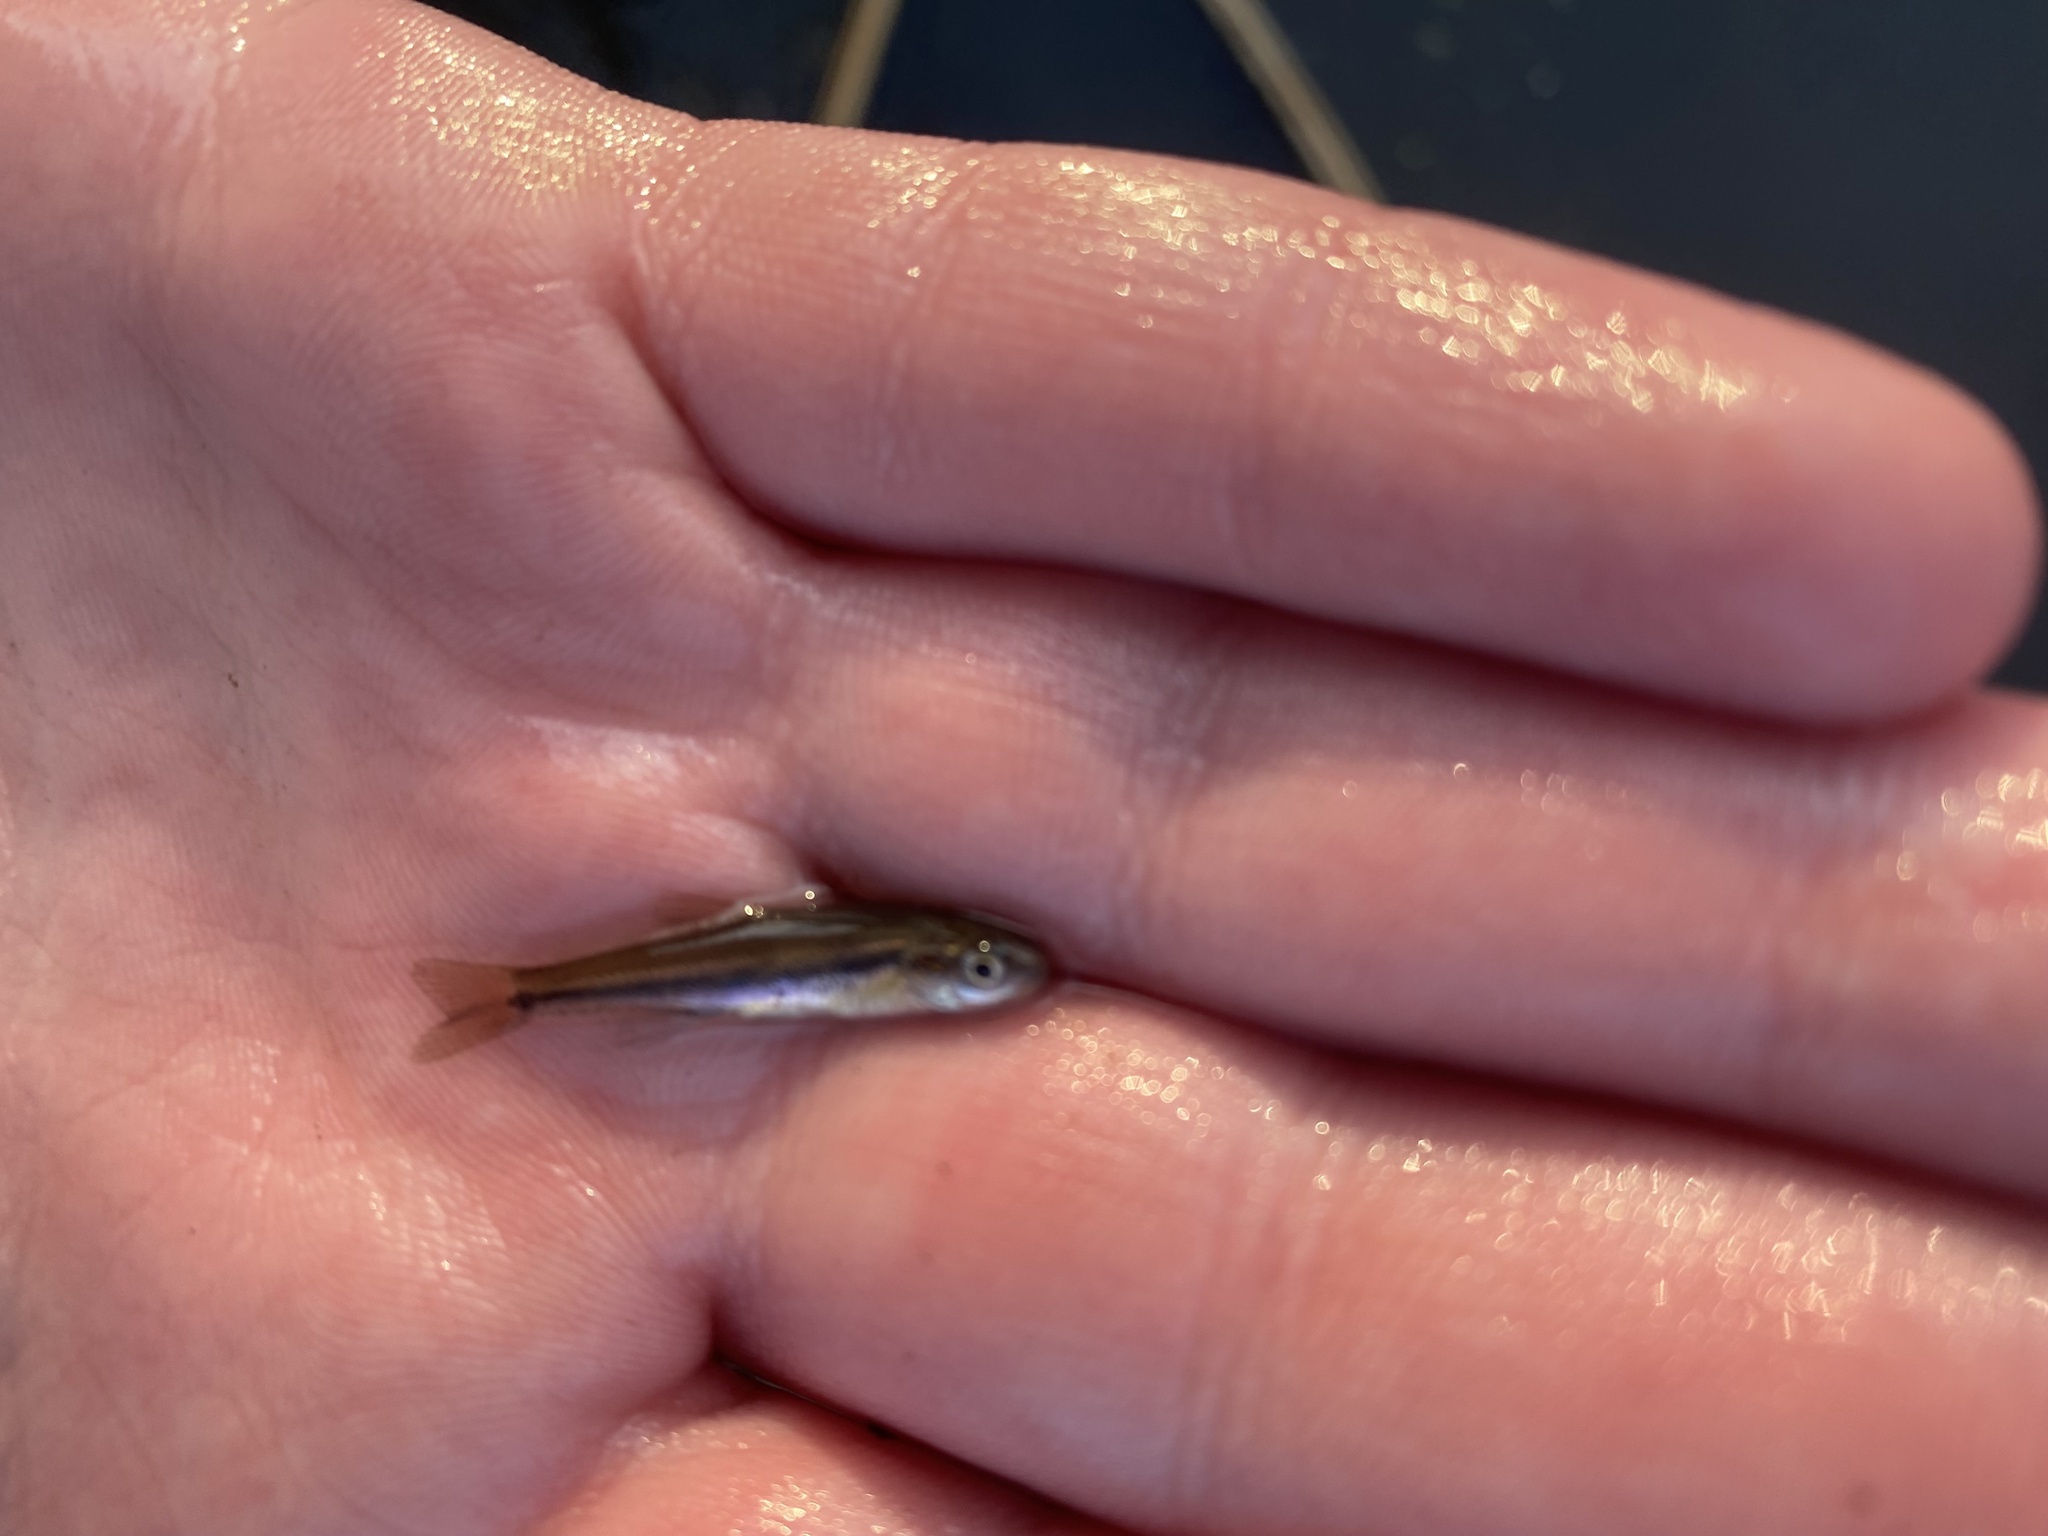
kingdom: Animalia
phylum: Chordata
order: Cypriniformes
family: Cyprinidae
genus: Chrosomus
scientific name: Chrosomus erythrogaster
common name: Southern redbelly dace
